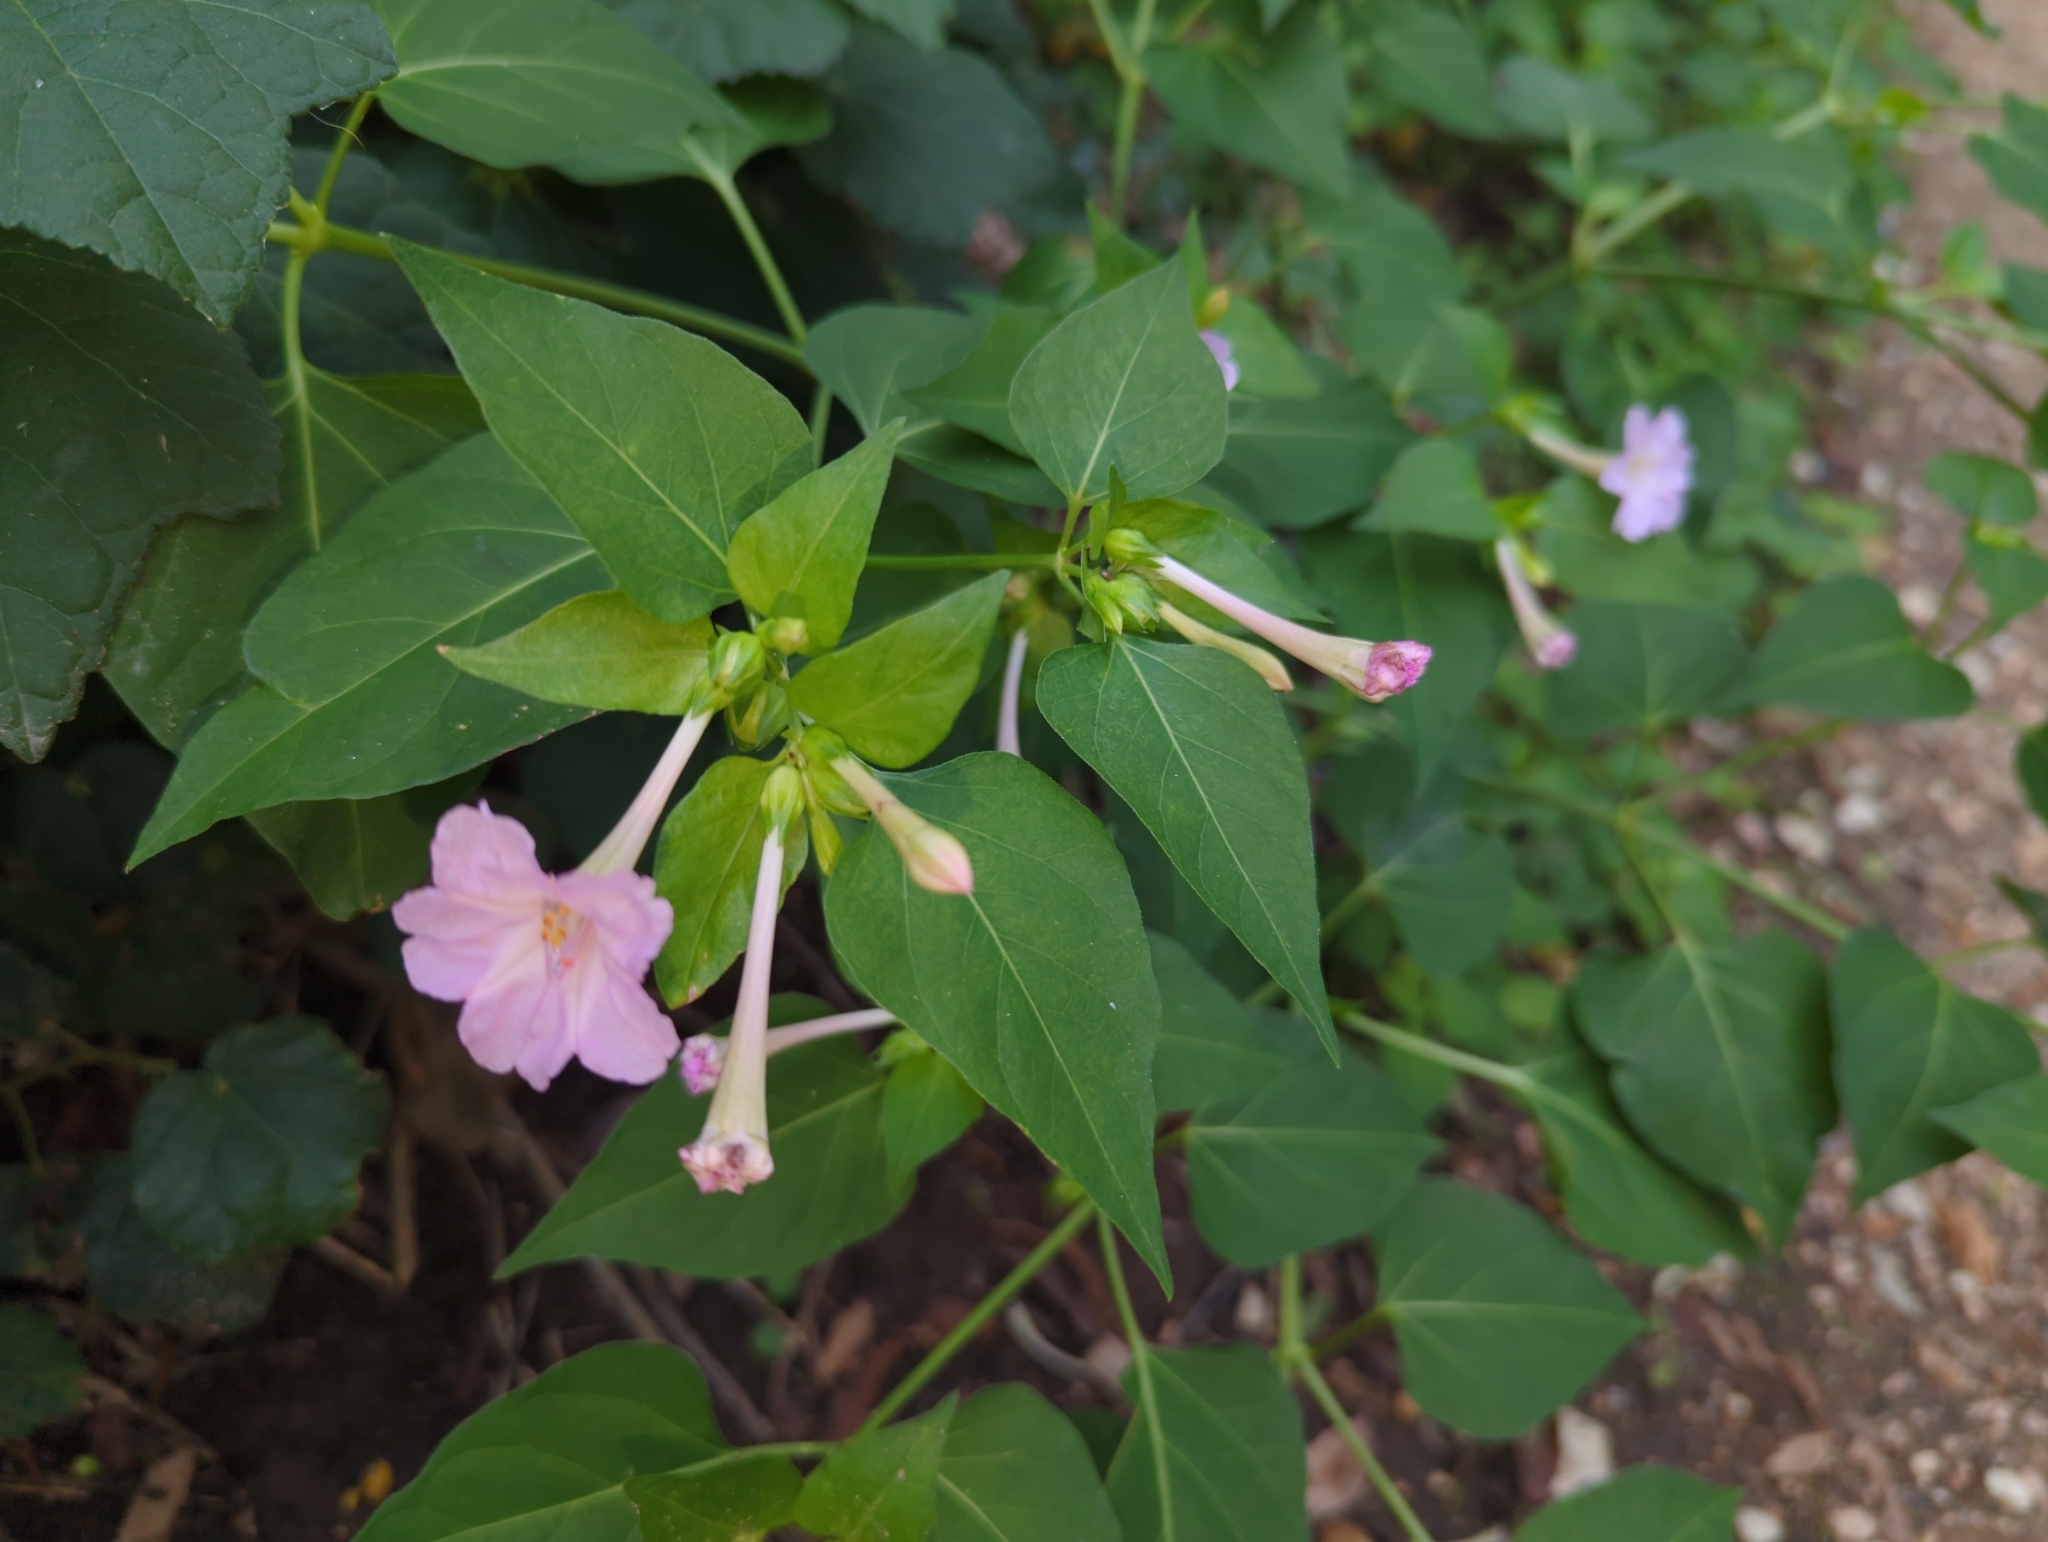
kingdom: Plantae
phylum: Tracheophyta
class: Magnoliopsida
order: Caryophyllales
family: Nyctaginaceae
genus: Mirabilis
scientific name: Mirabilis jalapa
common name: Marvel-of-peru
